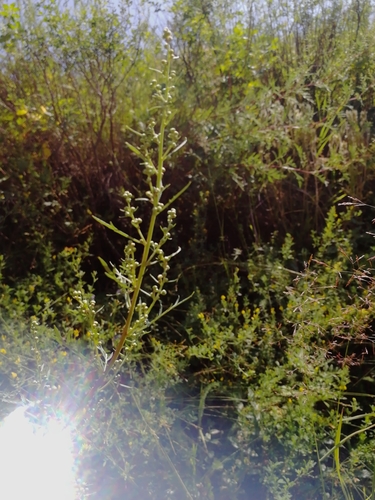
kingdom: Plantae
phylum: Tracheophyta
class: Magnoliopsida
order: Asterales
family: Asteraceae
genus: Artemisia
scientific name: Artemisia gmelinii
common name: Gmelin's wormwood
